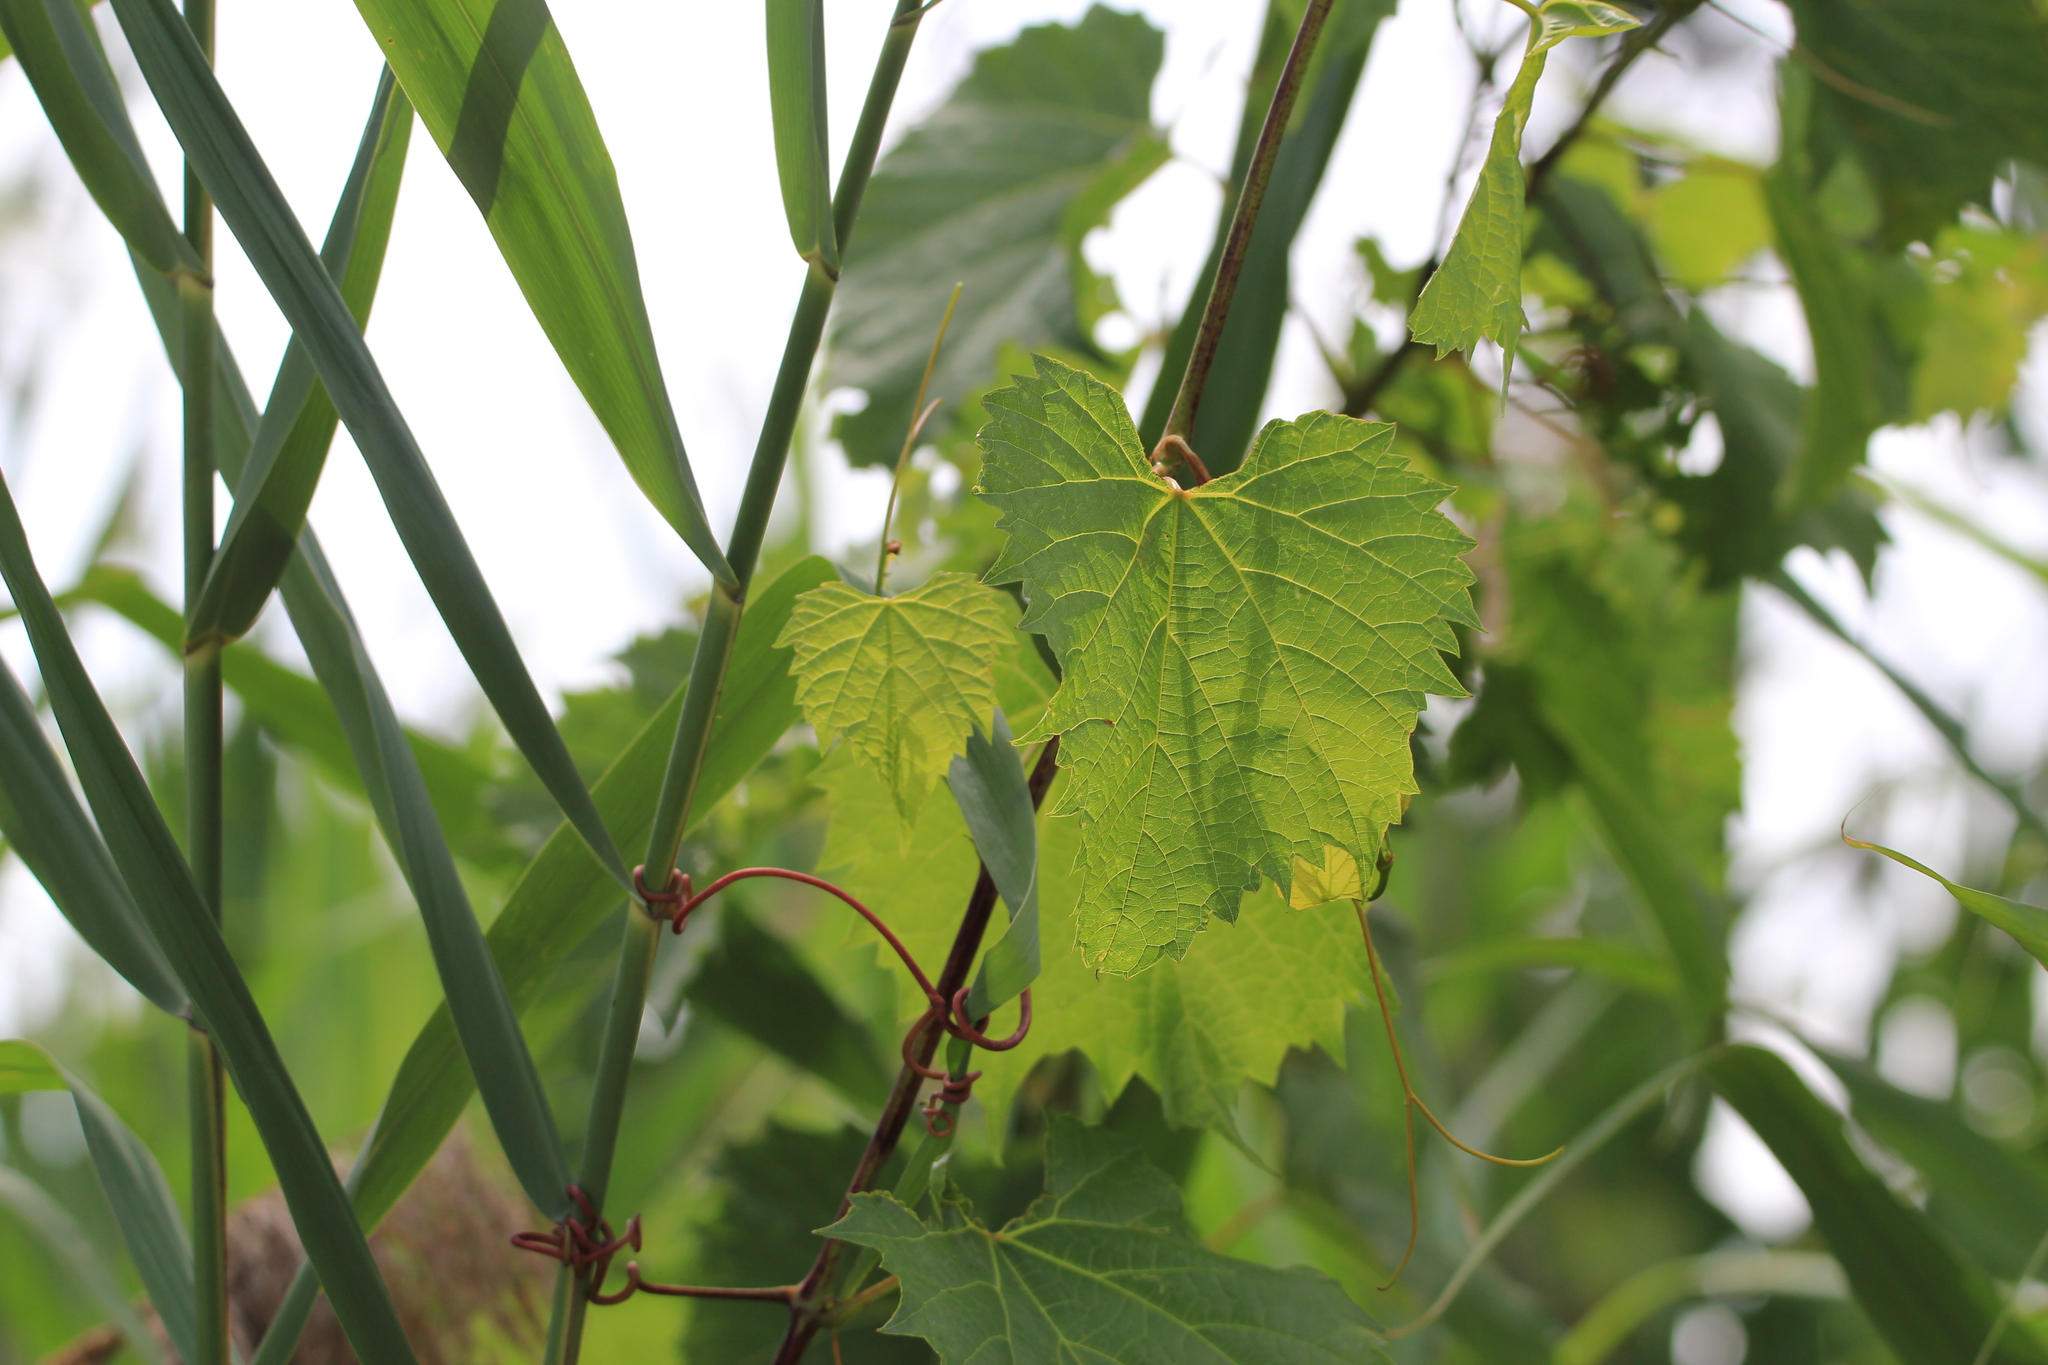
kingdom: Plantae
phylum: Tracheophyta
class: Magnoliopsida
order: Vitales
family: Vitaceae
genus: Vitis
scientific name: Vitis riparia
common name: Frost grape
